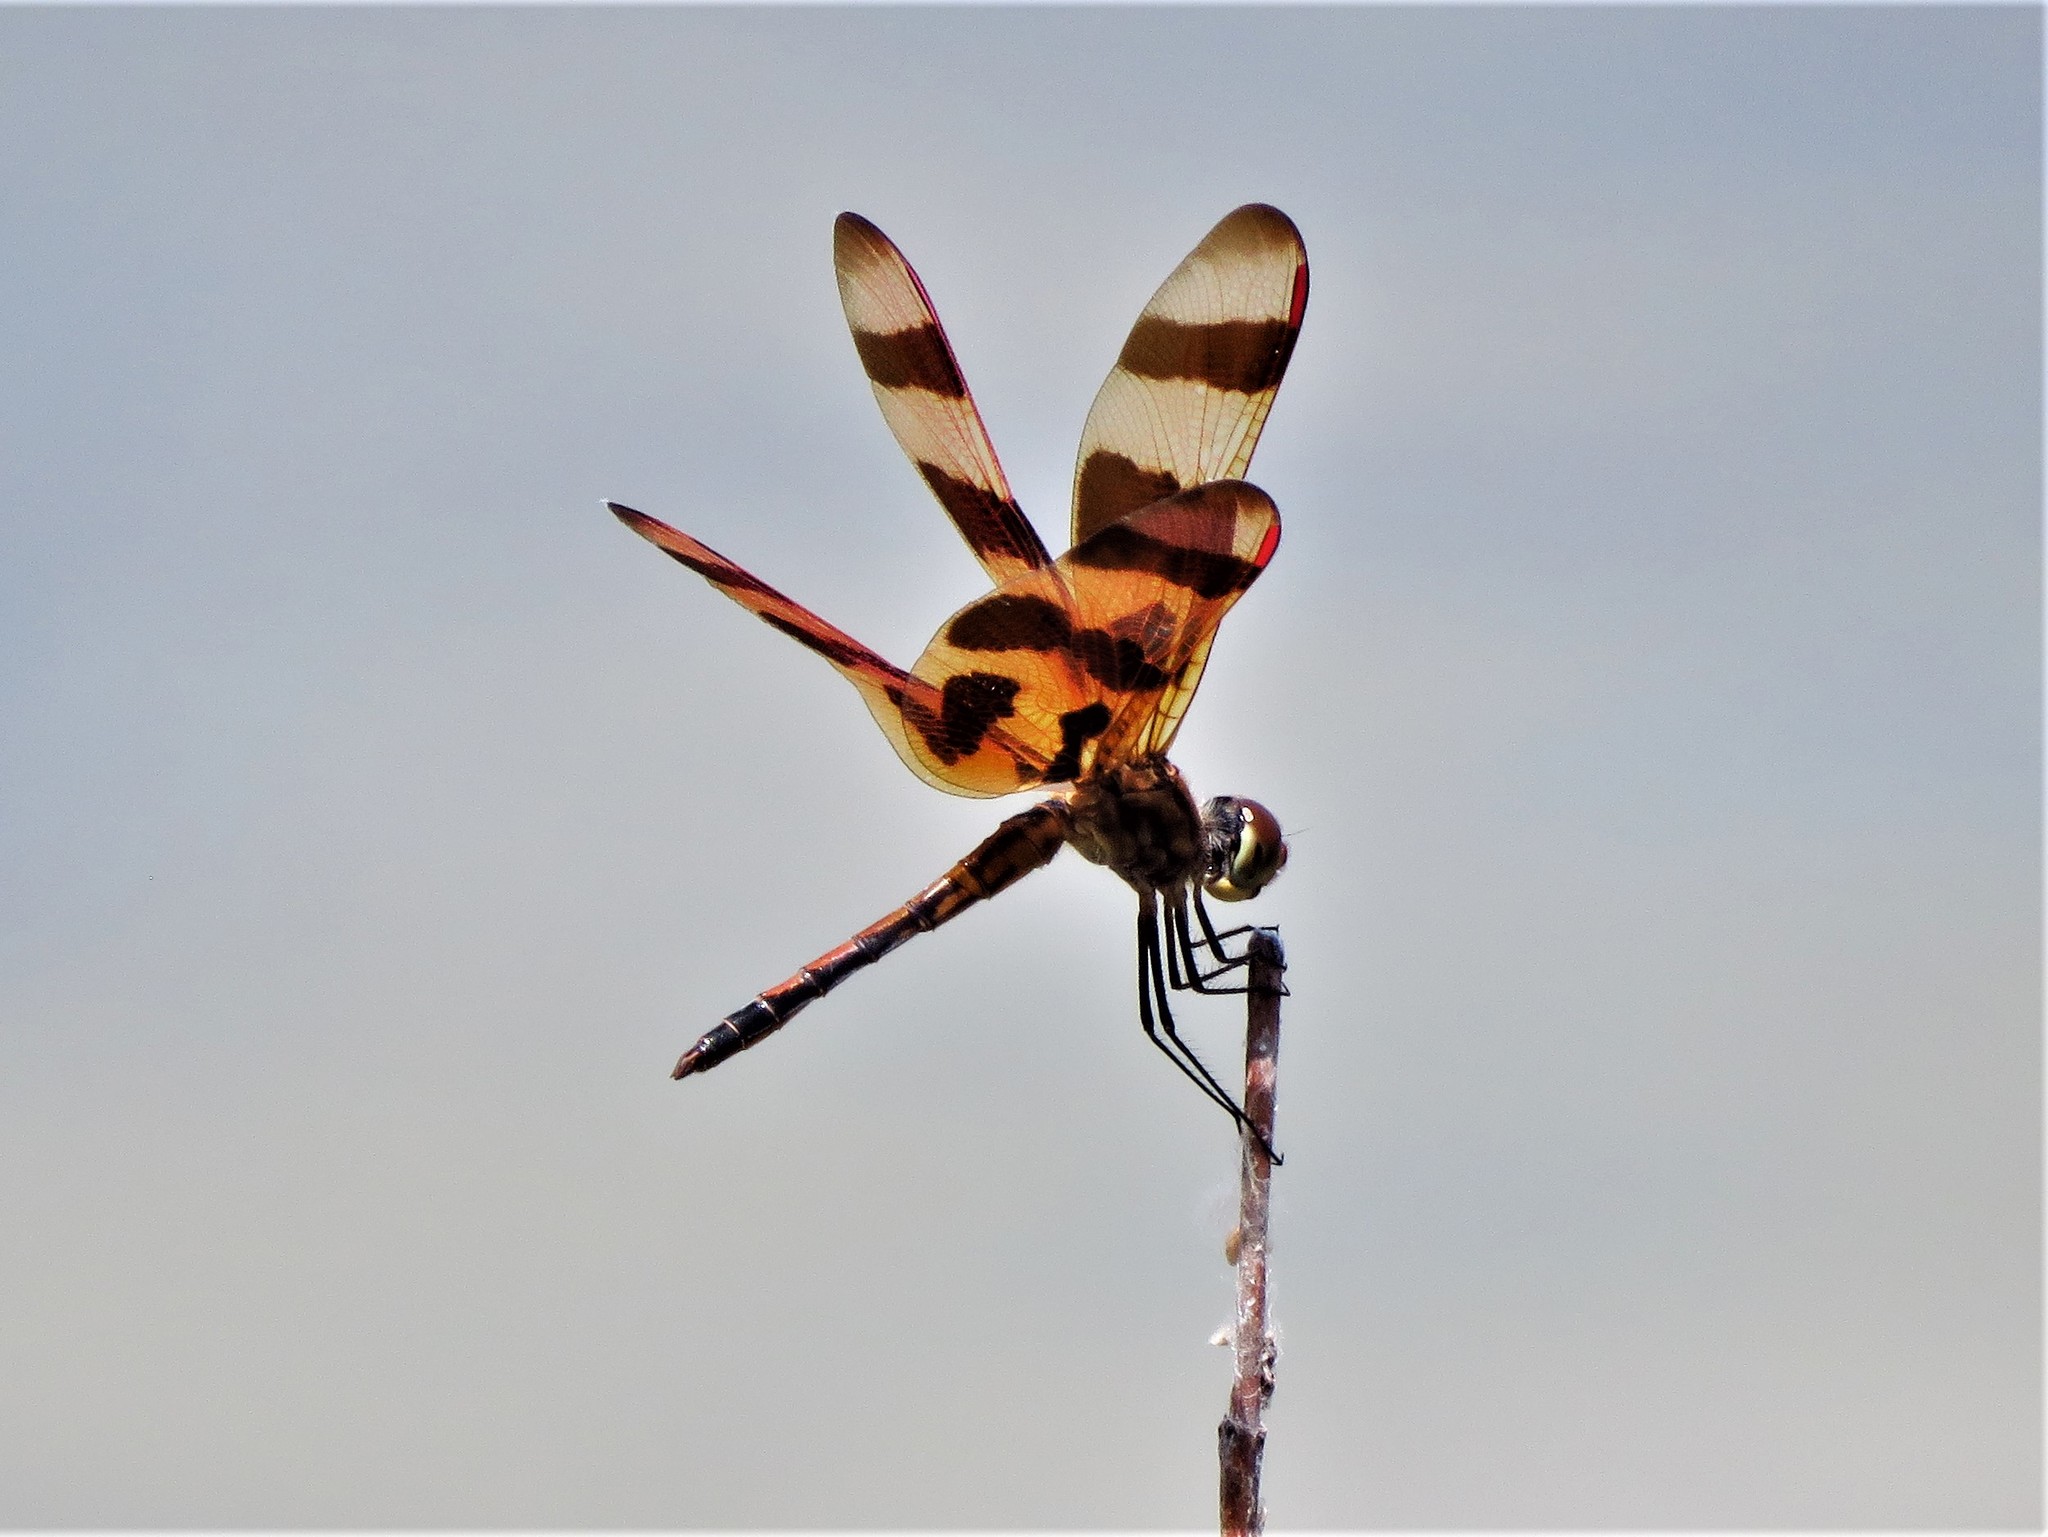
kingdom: Animalia
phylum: Arthropoda
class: Insecta
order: Odonata
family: Libellulidae
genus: Celithemis
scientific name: Celithemis eponina
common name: Halloween pennant
